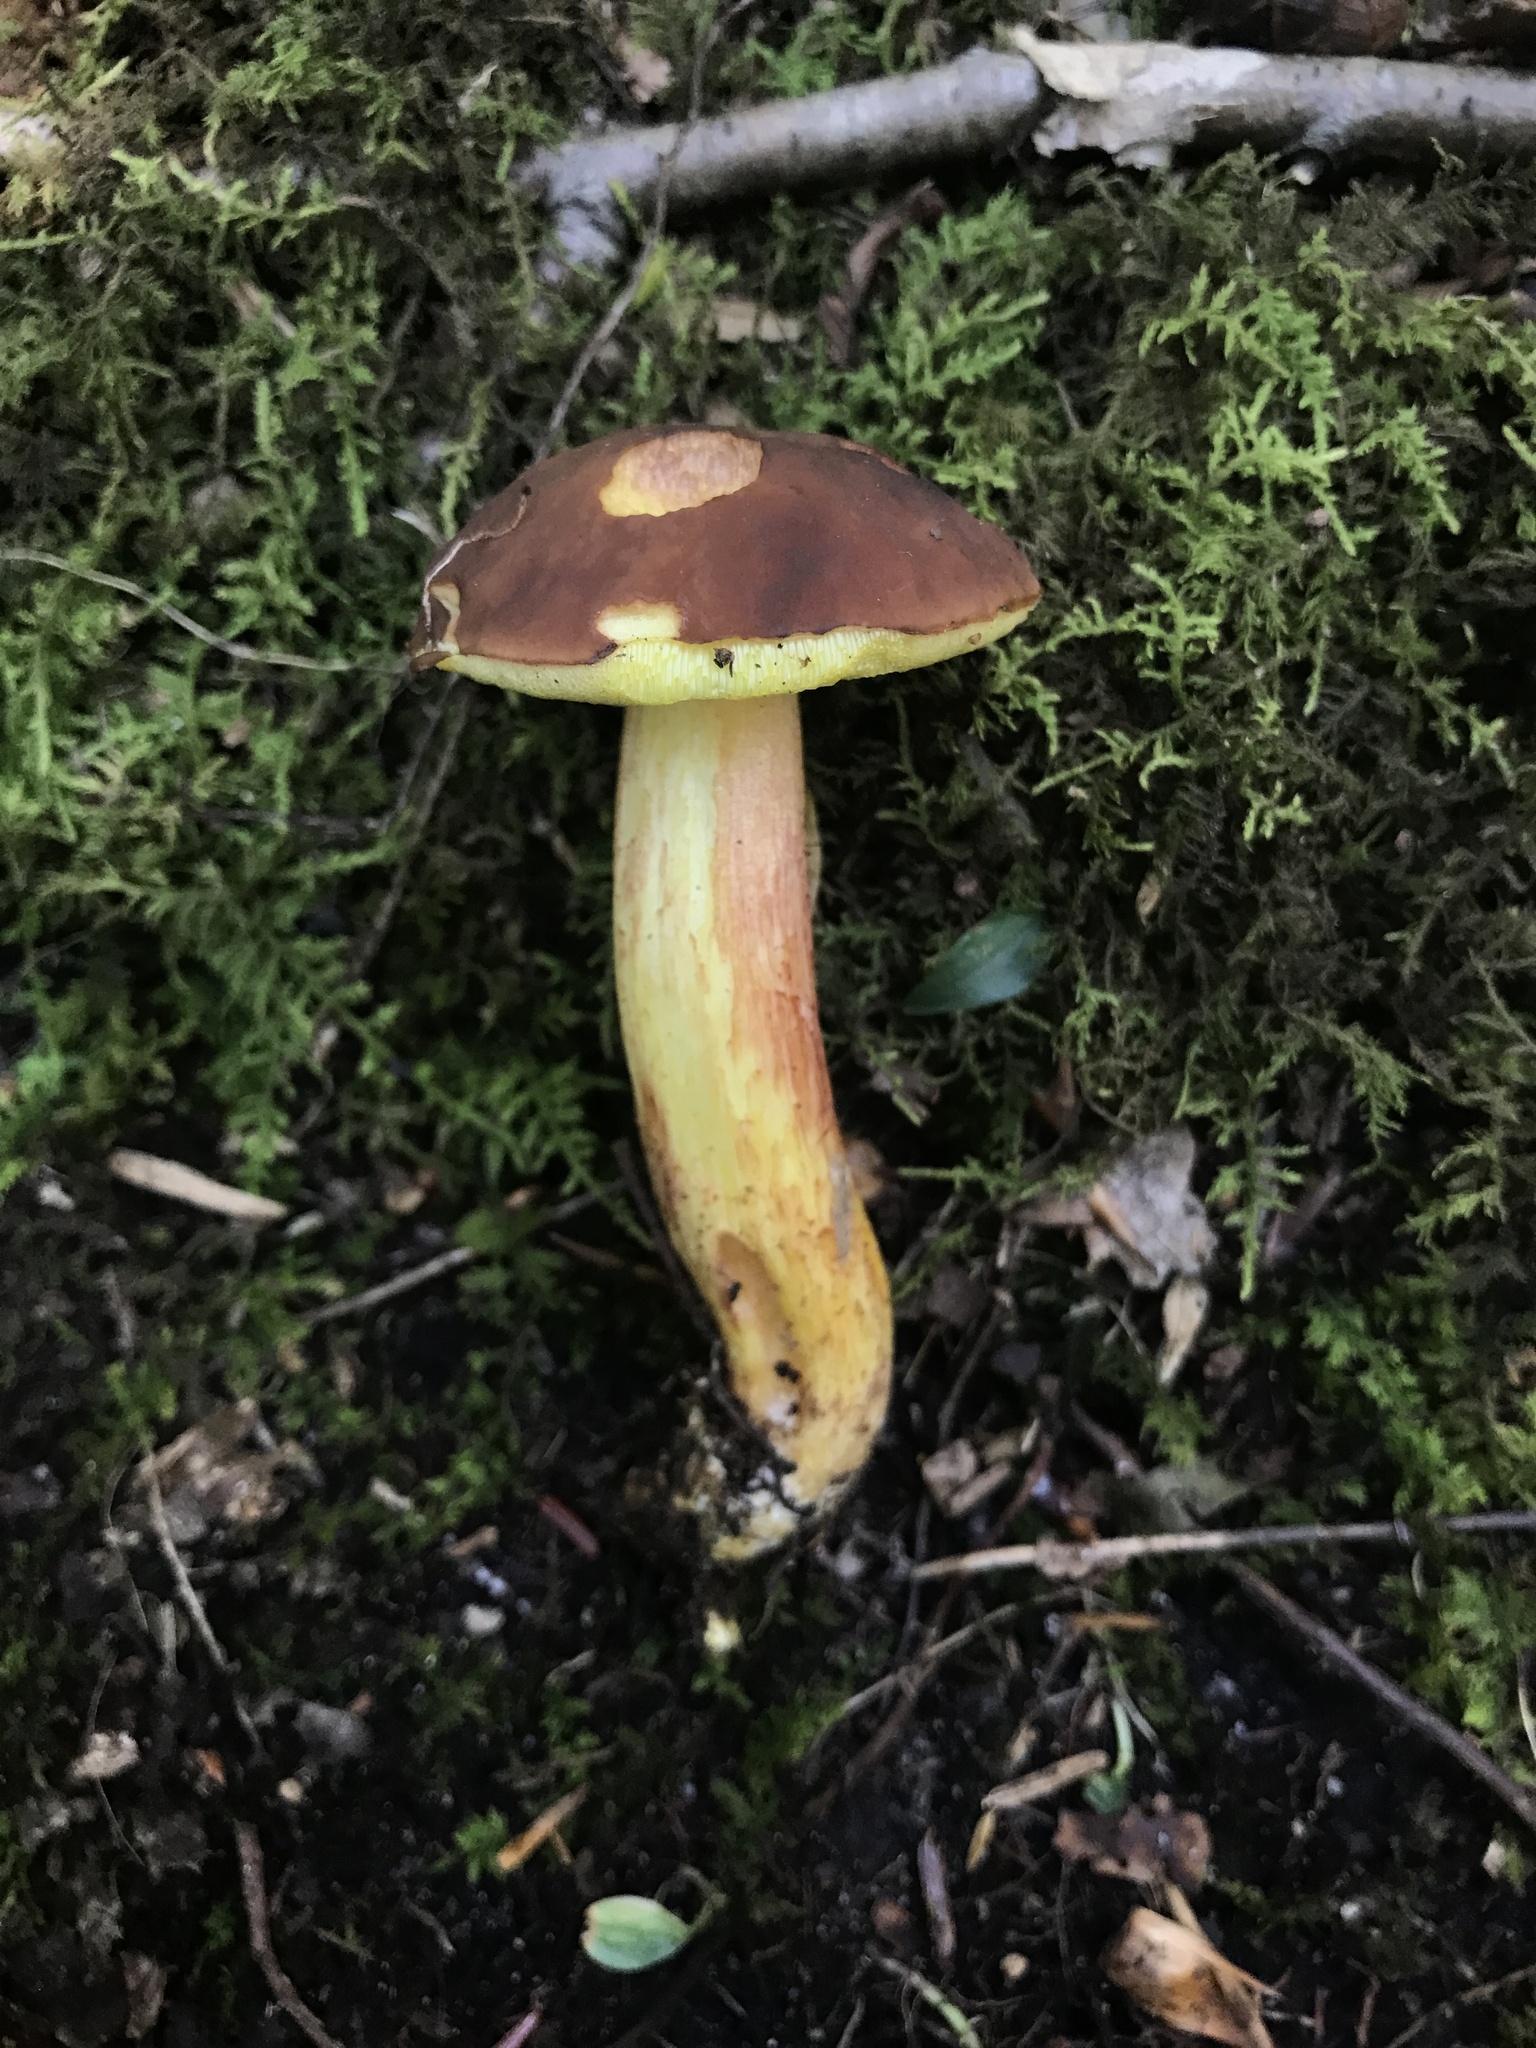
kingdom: Fungi
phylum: Basidiomycota
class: Agaricomycetes
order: Boletales
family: Boletaceae
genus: Hemileccinum
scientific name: Hemileccinum rubropunctum
